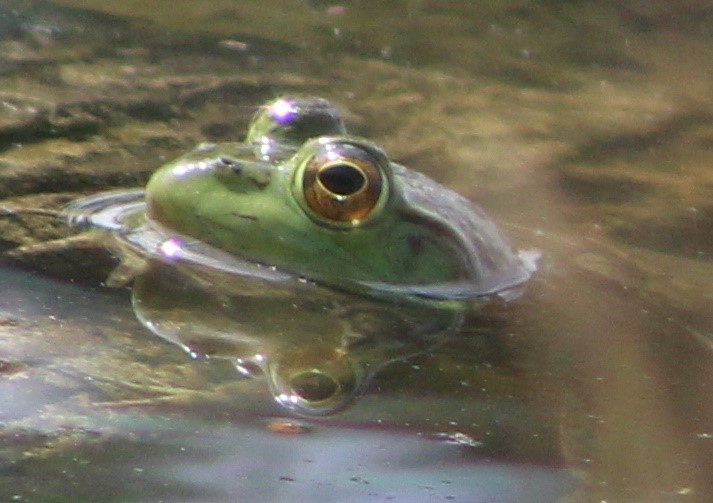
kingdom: Animalia
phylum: Chordata
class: Amphibia
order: Anura
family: Ranidae
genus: Lithobates
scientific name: Lithobates catesbeianus
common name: American bullfrog
